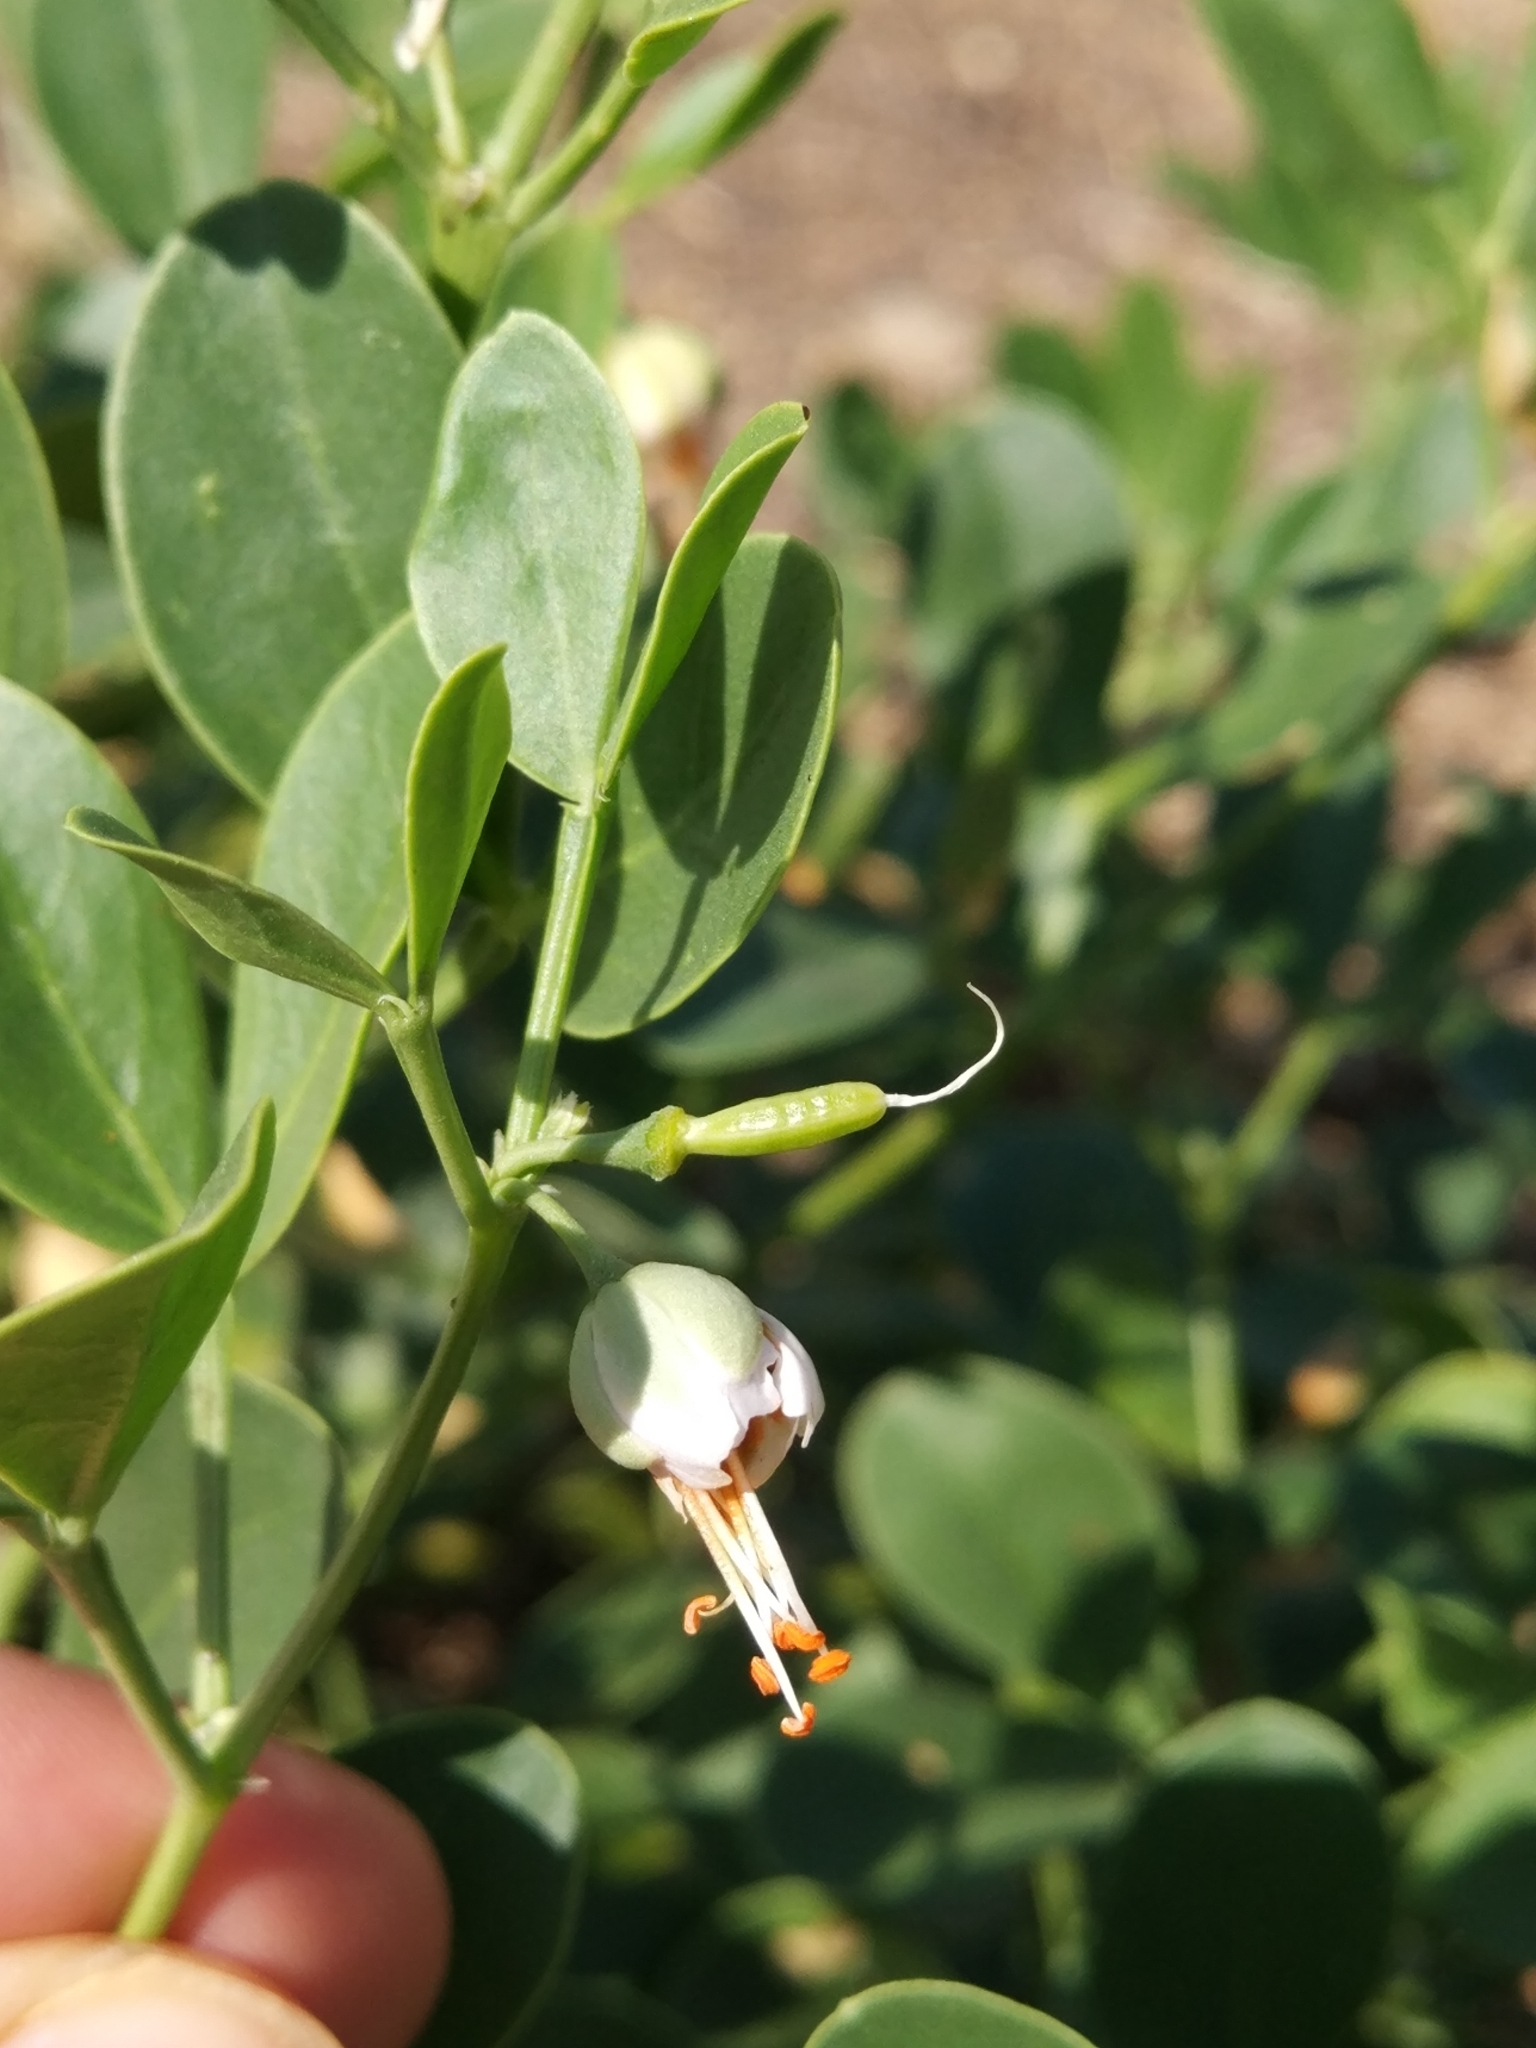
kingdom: Plantae
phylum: Tracheophyta
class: Magnoliopsida
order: Zygophyllales
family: Zygophyllaceae
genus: Zygophyllum
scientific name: Zygophyllum fabago
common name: Syrian beancaper
